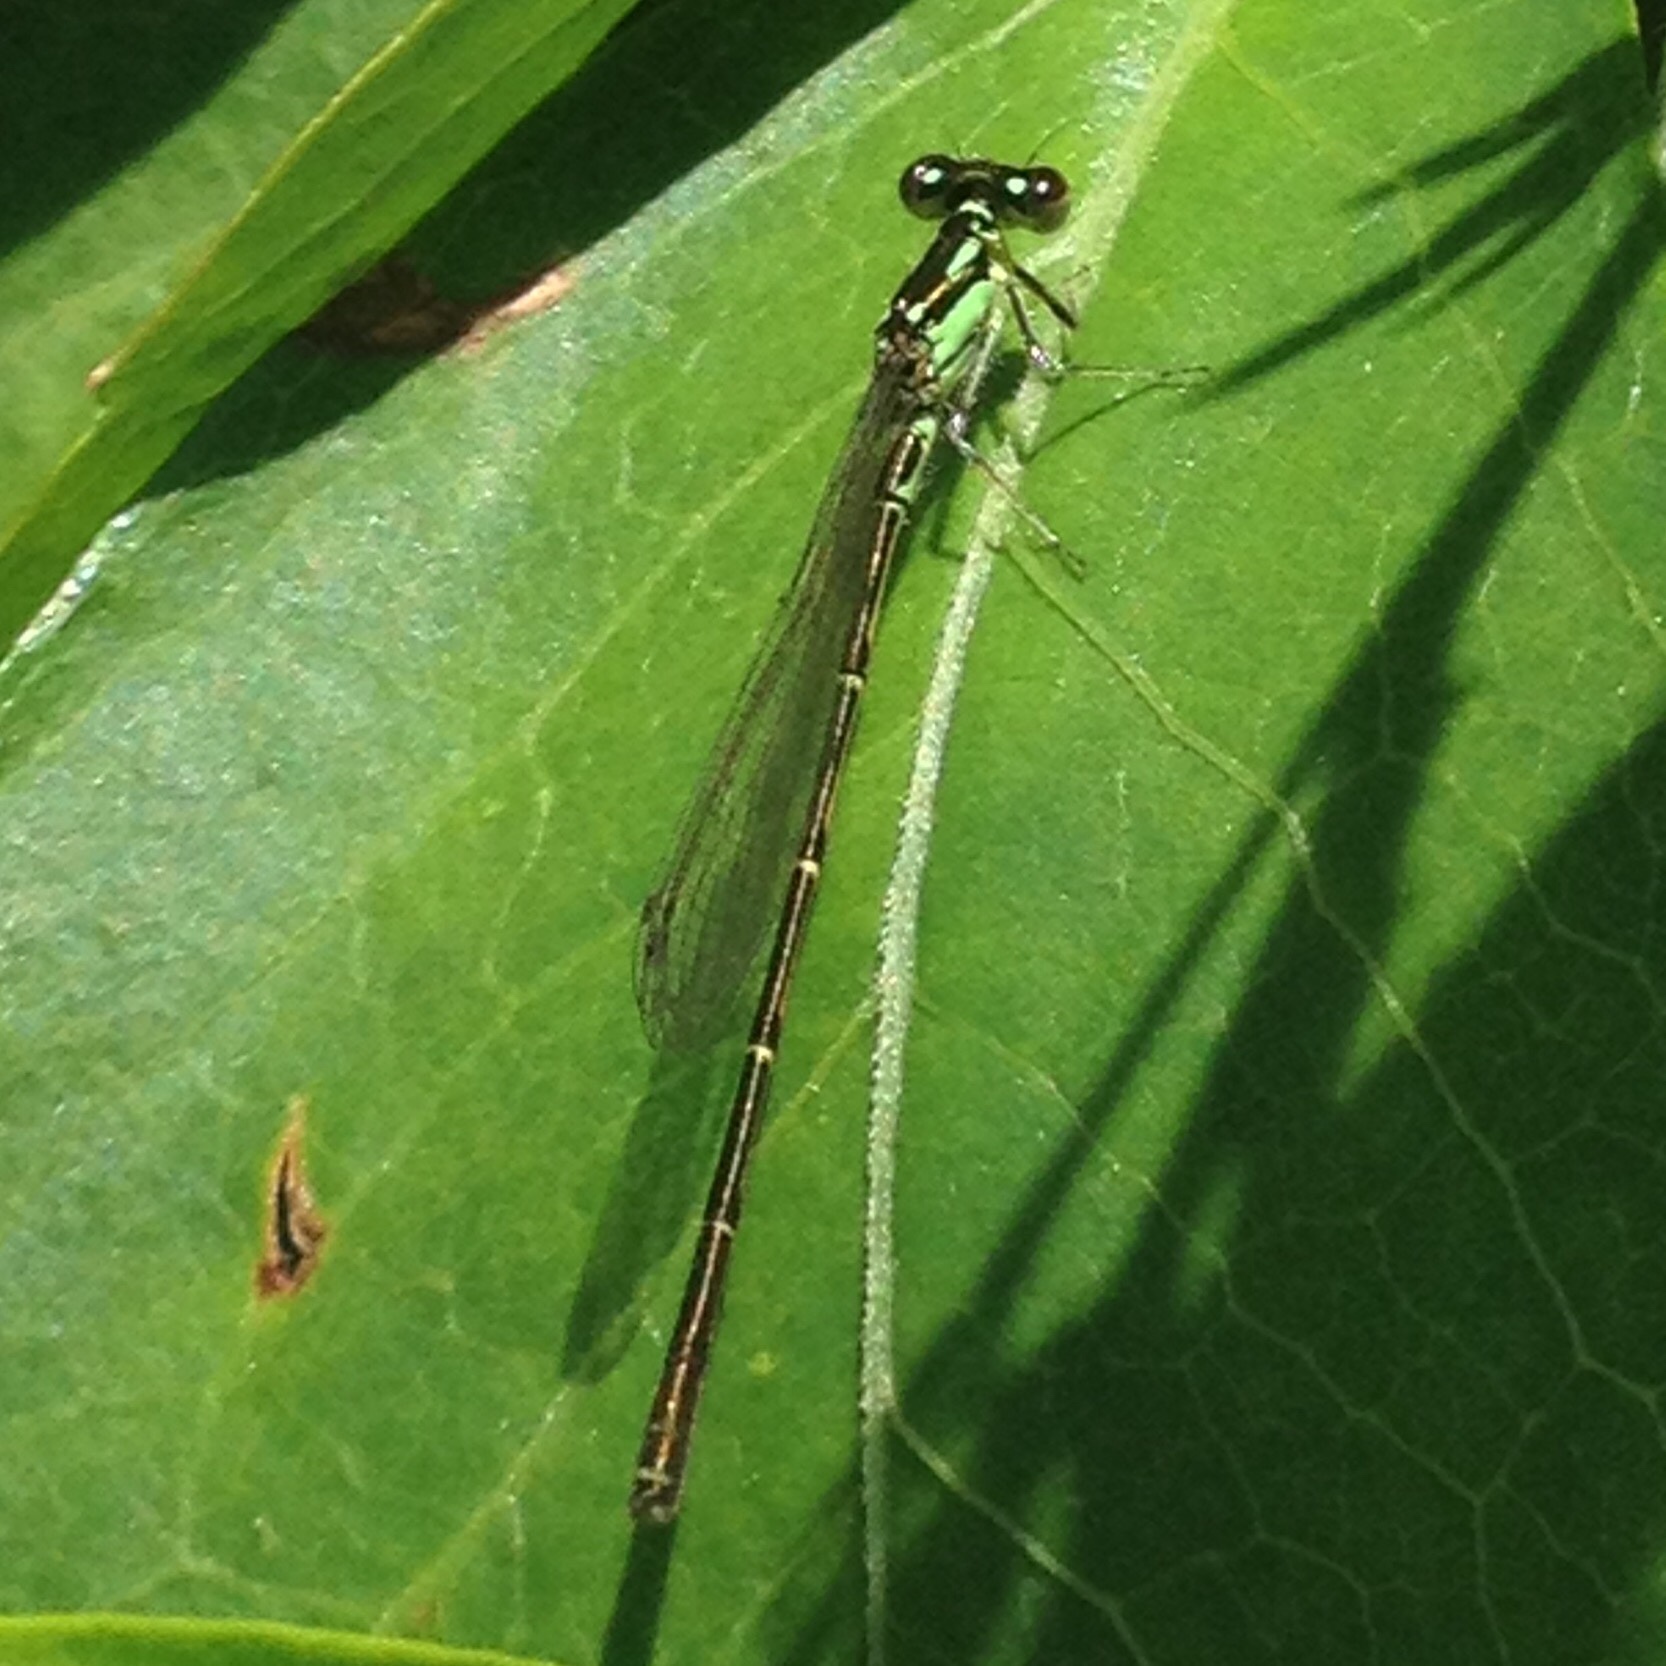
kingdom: Animalia
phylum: Arthropoda
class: Insecta
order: Odonata
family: Coenagrionidae
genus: Ischnura
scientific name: Ischnura posita
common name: Fragile forktail
